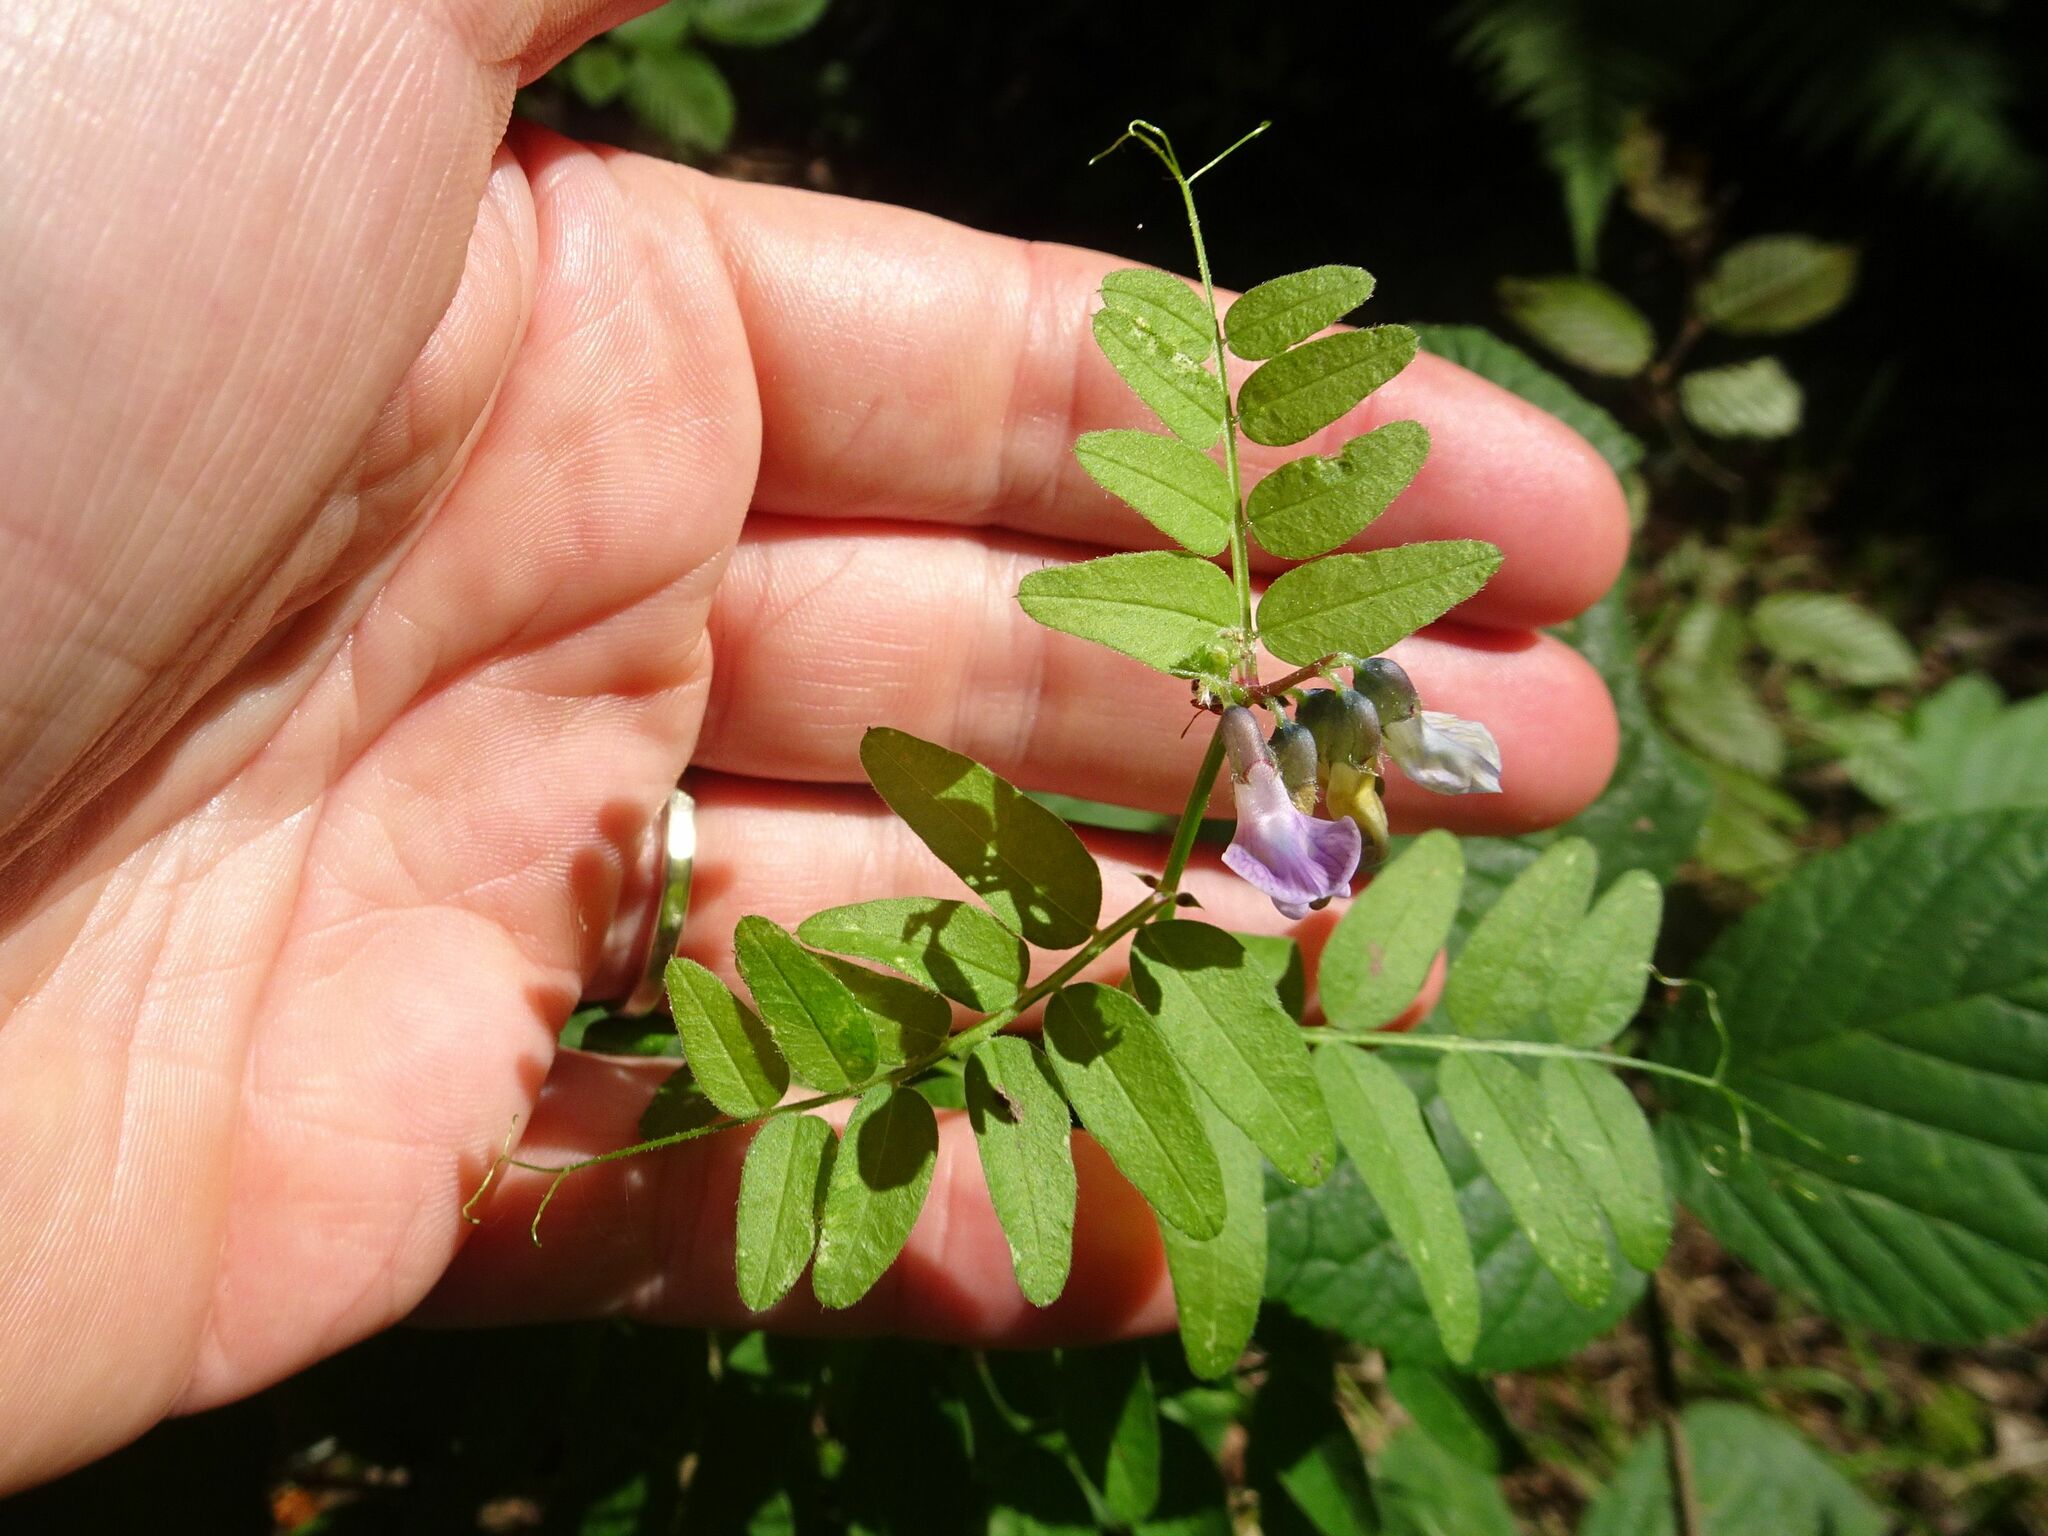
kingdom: Plantae
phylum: Tracheophyta
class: Magnoliopsida
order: Fabales
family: Fabaceae
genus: Vicia
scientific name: Vicia sepium
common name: Bush vetch
